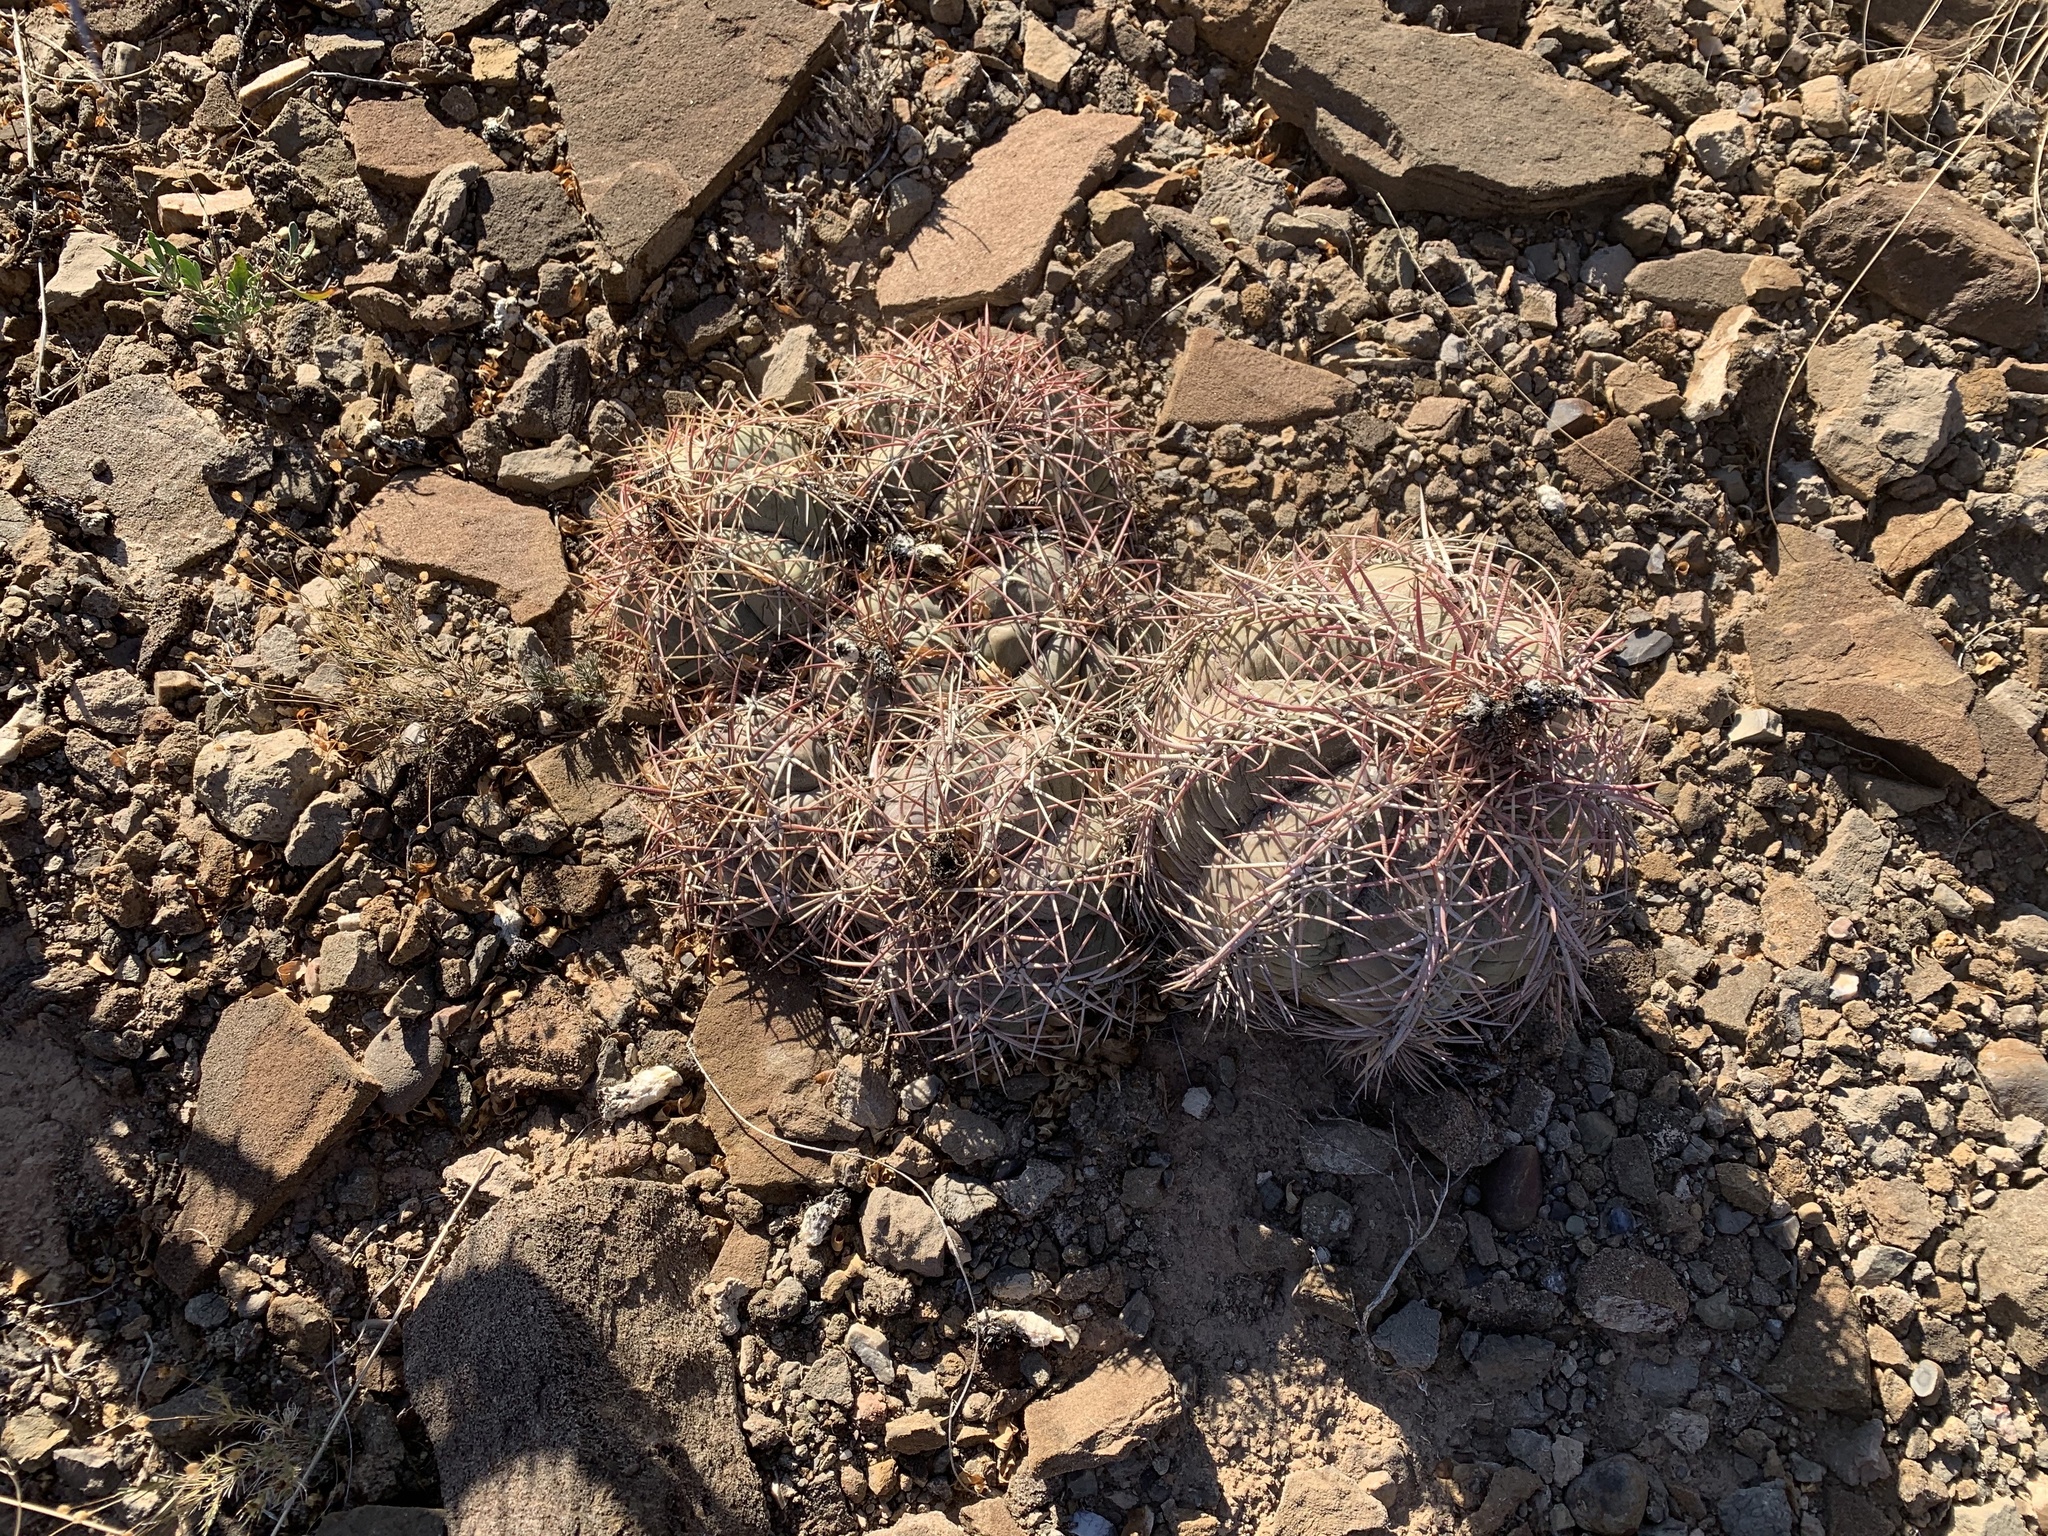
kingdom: Plantae
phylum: Tracheophyta
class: Magnoliopsida
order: Caryophyllales
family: Cactaceae
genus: Echinocactus
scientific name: Echinocactus horizonthalonius
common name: Devilshead
